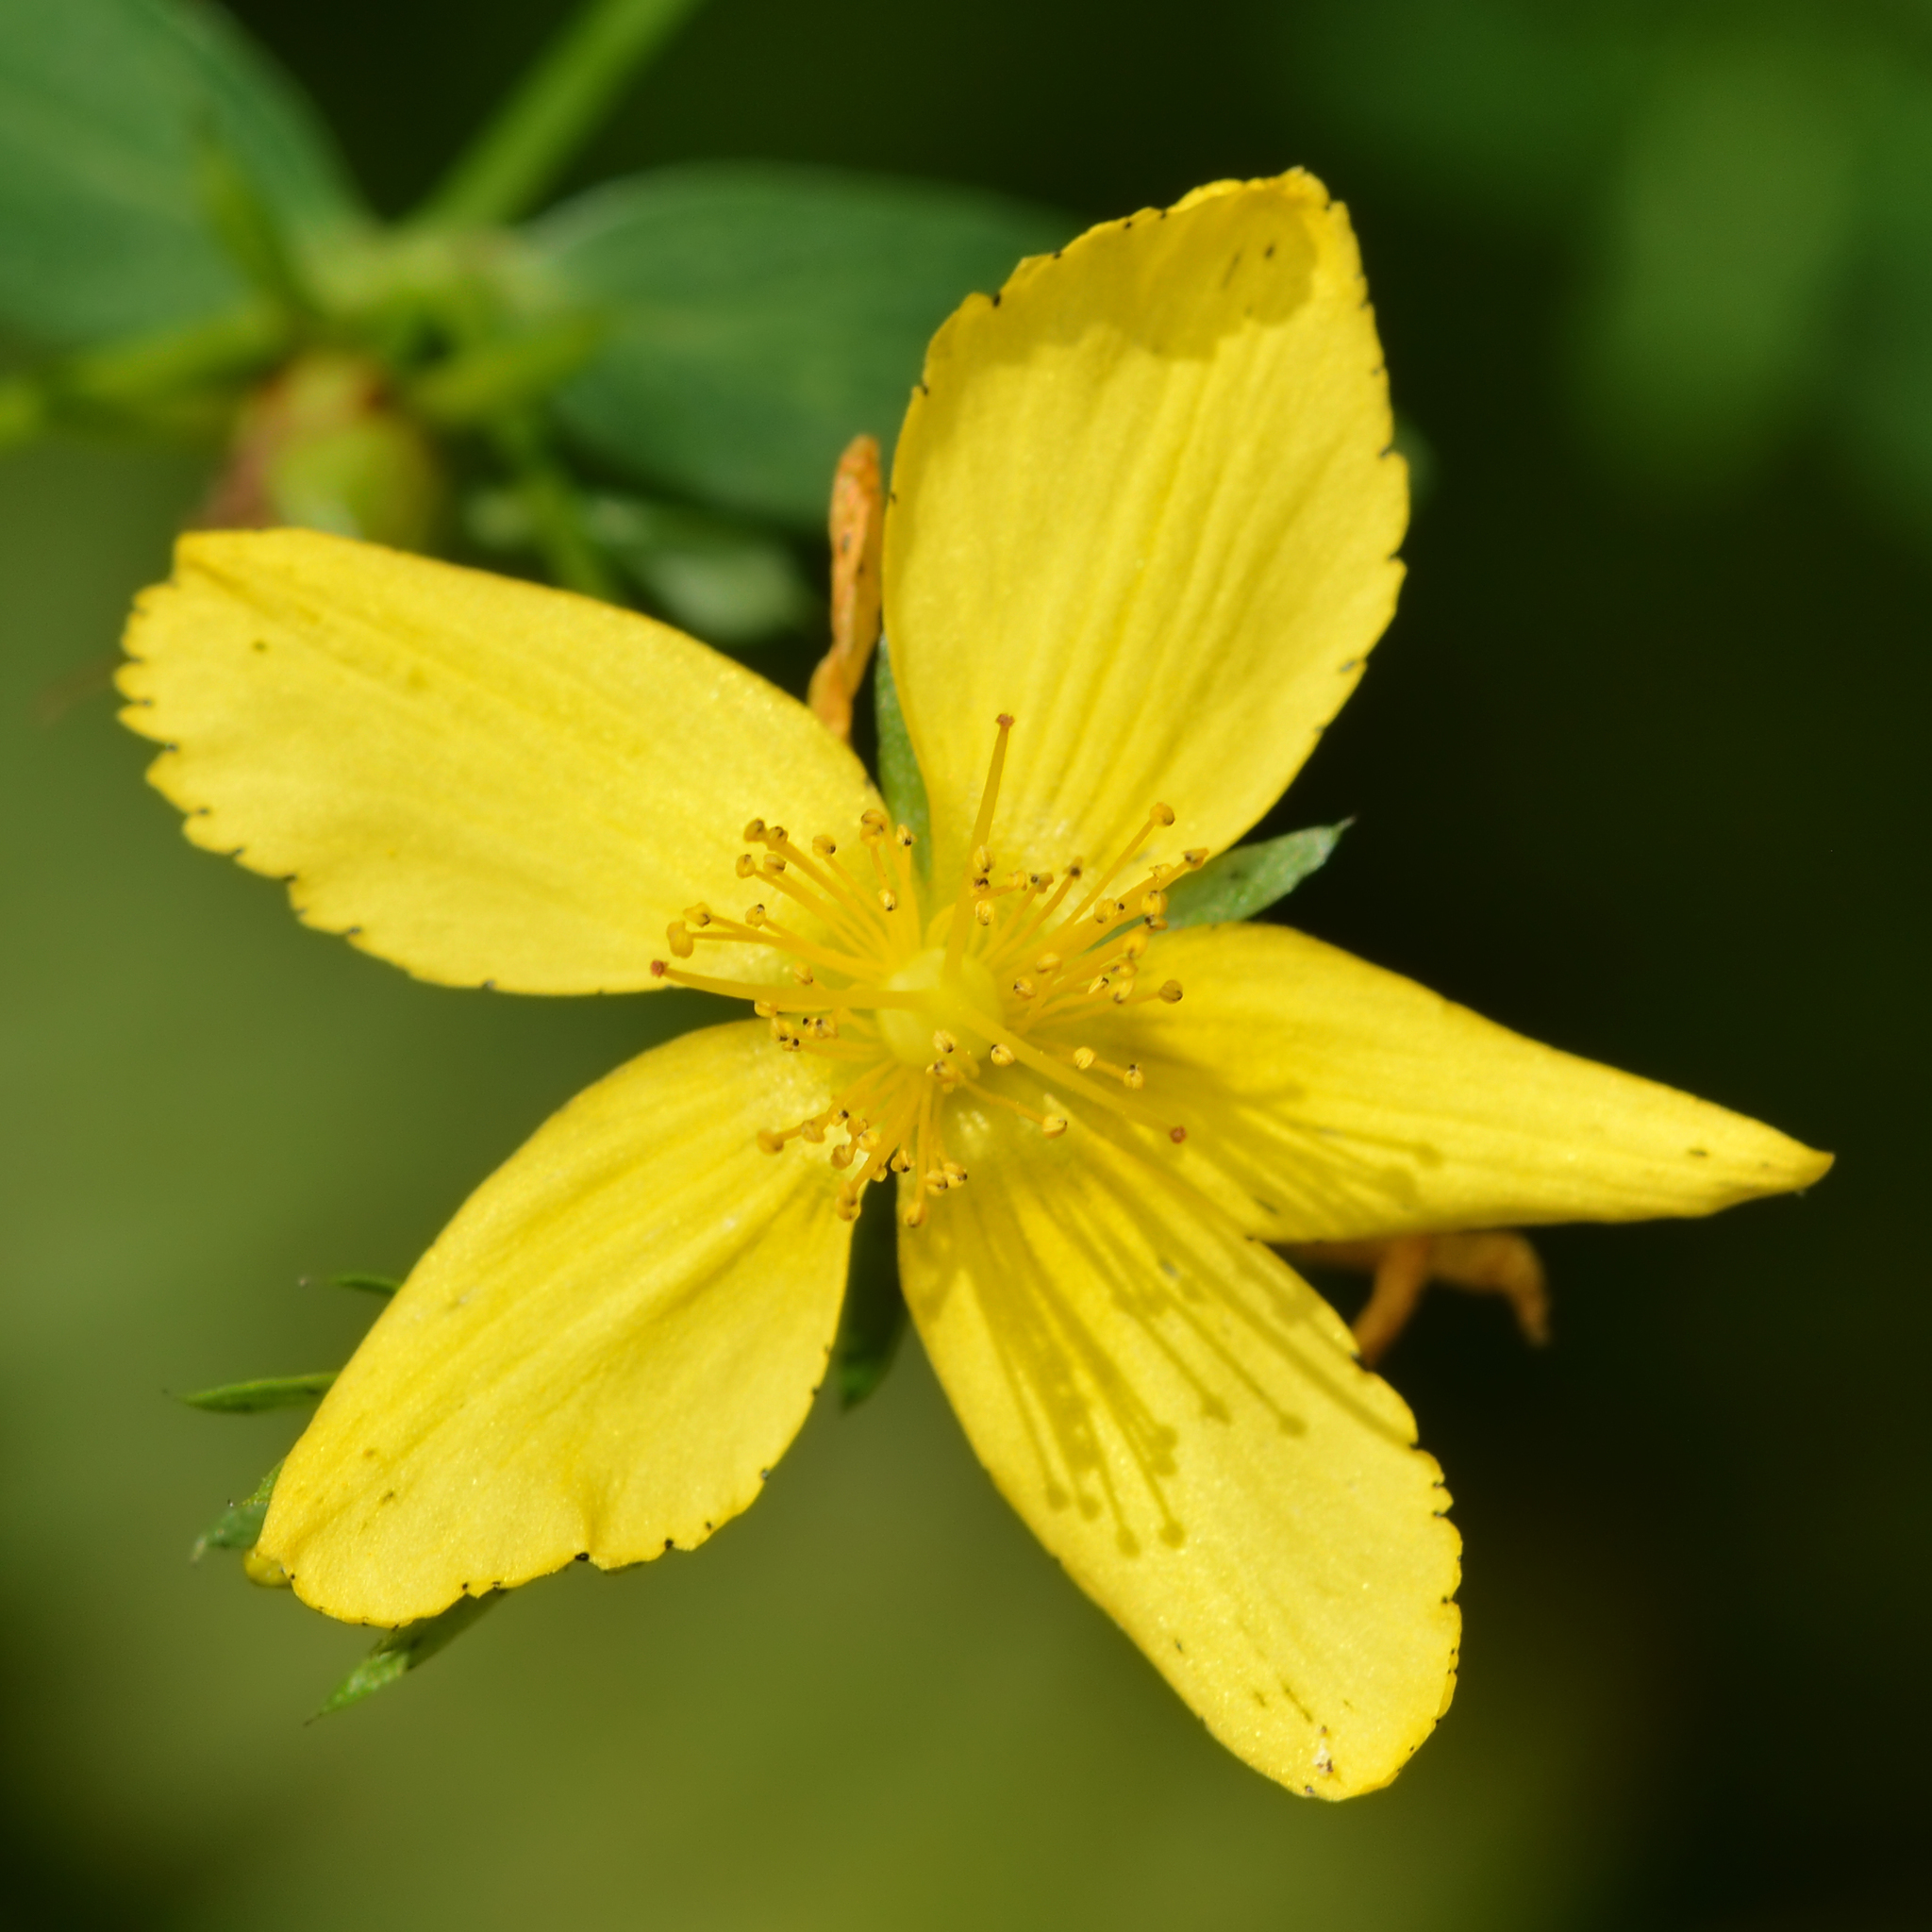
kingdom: Plantae
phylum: Tracheophyta
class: Magnoliopsida
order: Malpighiales
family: Hypericaceae
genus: Hypericum
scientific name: Hypericum perforatum
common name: Common st. johnswort
